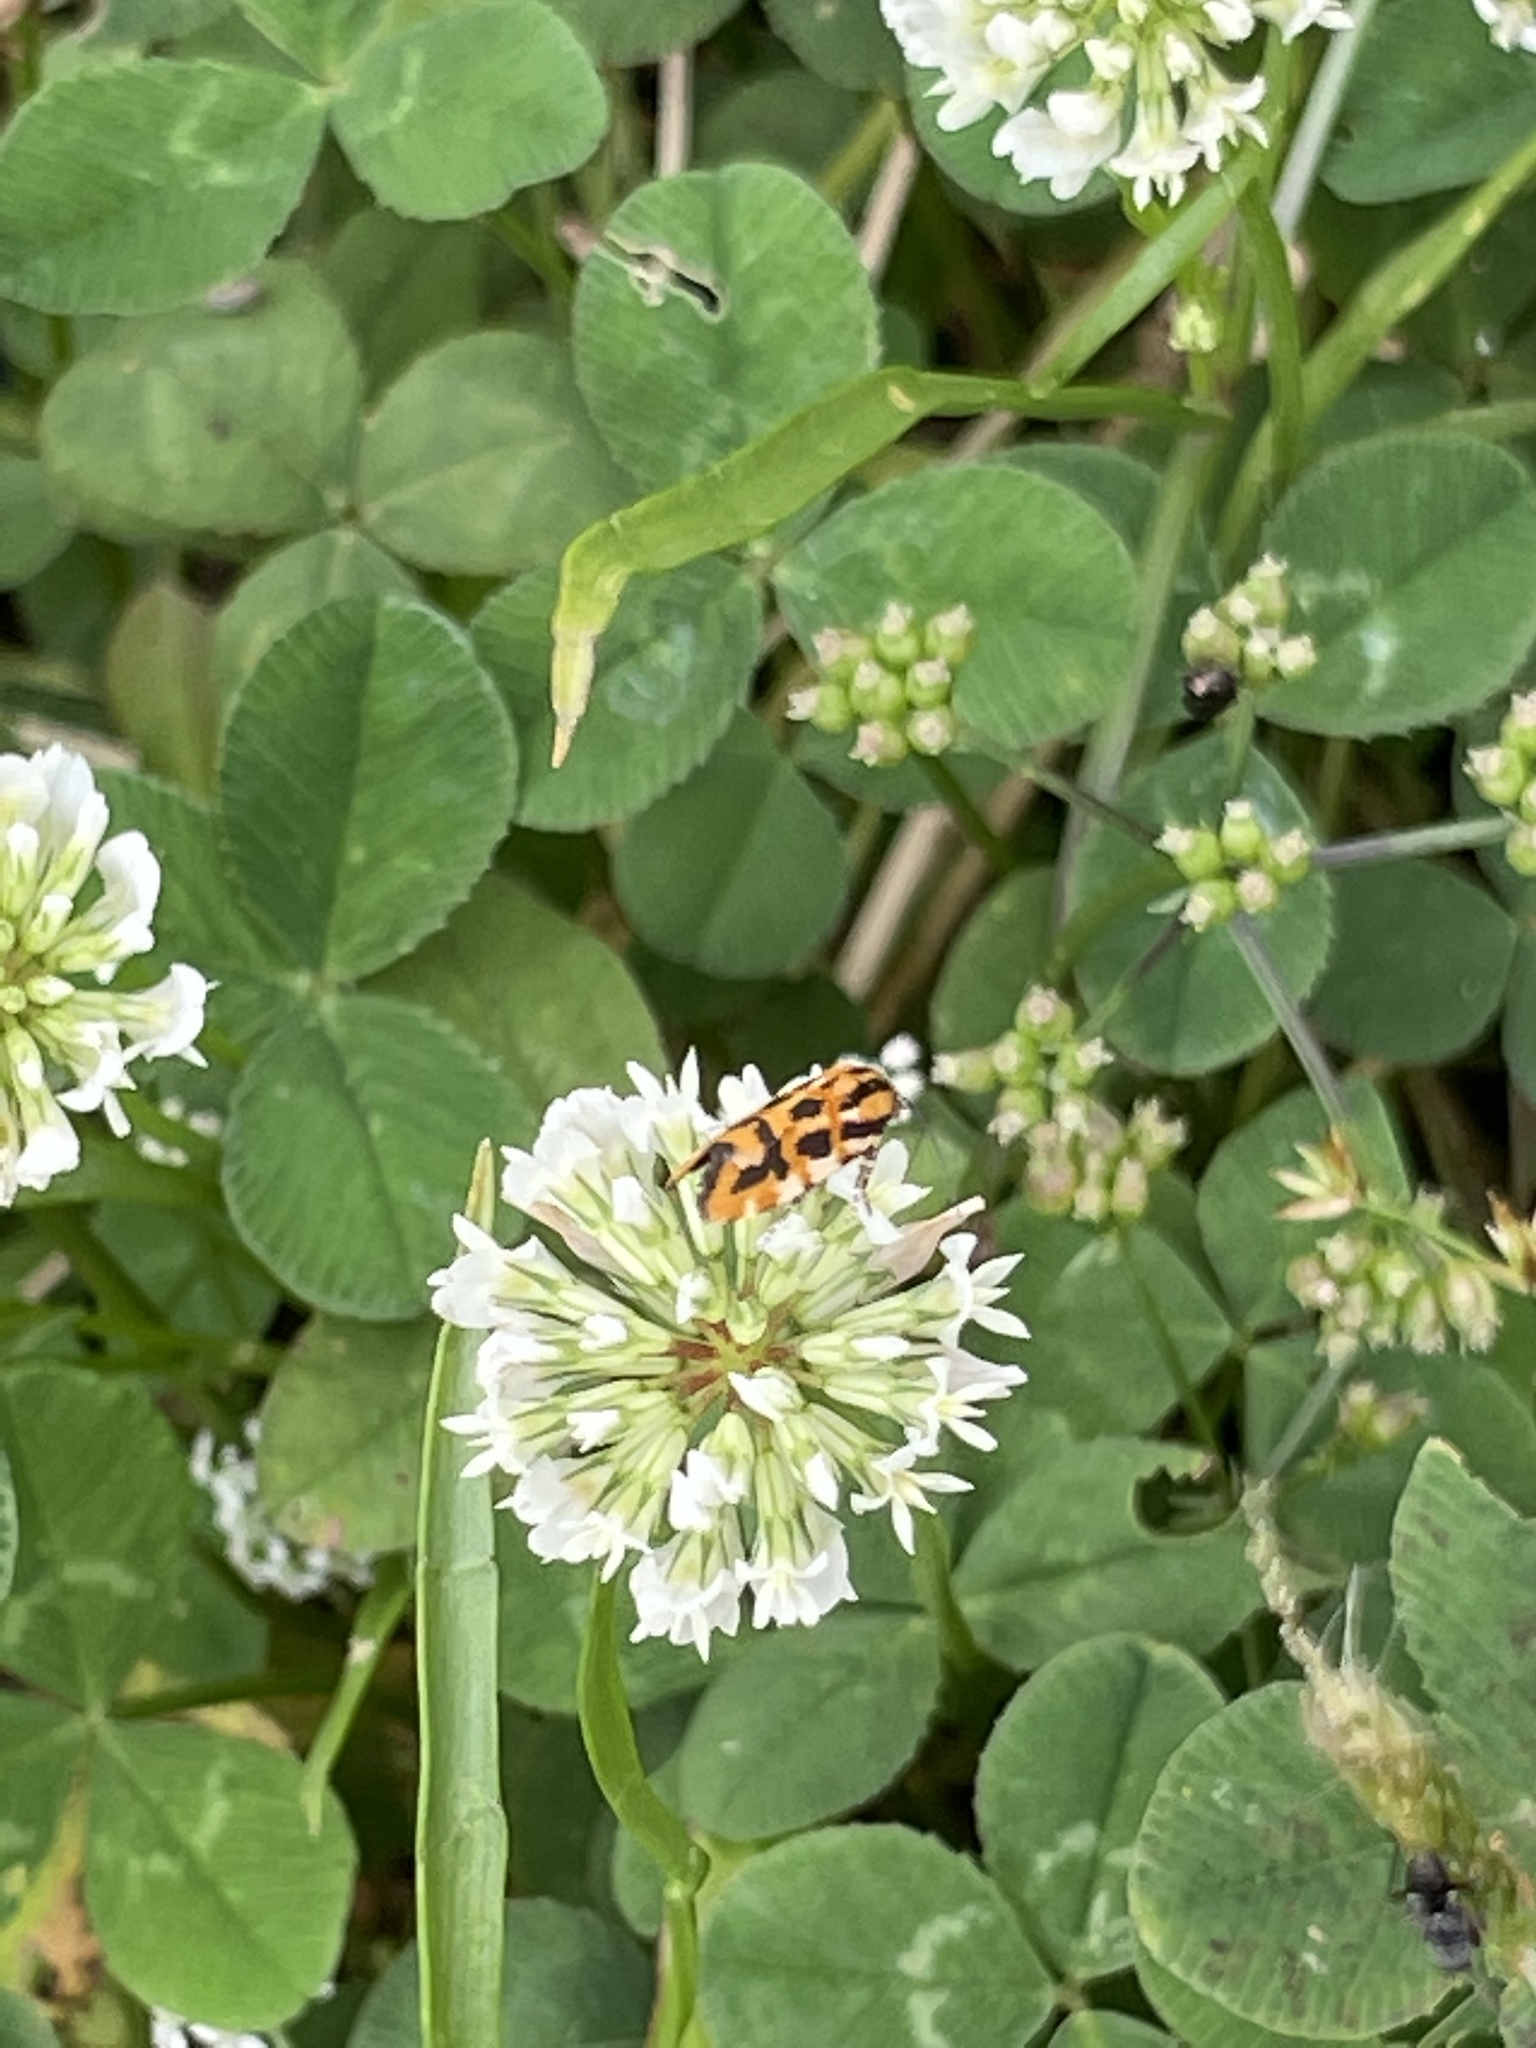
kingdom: Animalia
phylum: Arthropoda
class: Insecta
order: Lepidoptera
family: Noctuidae
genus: Acontia
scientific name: Acontia leo
